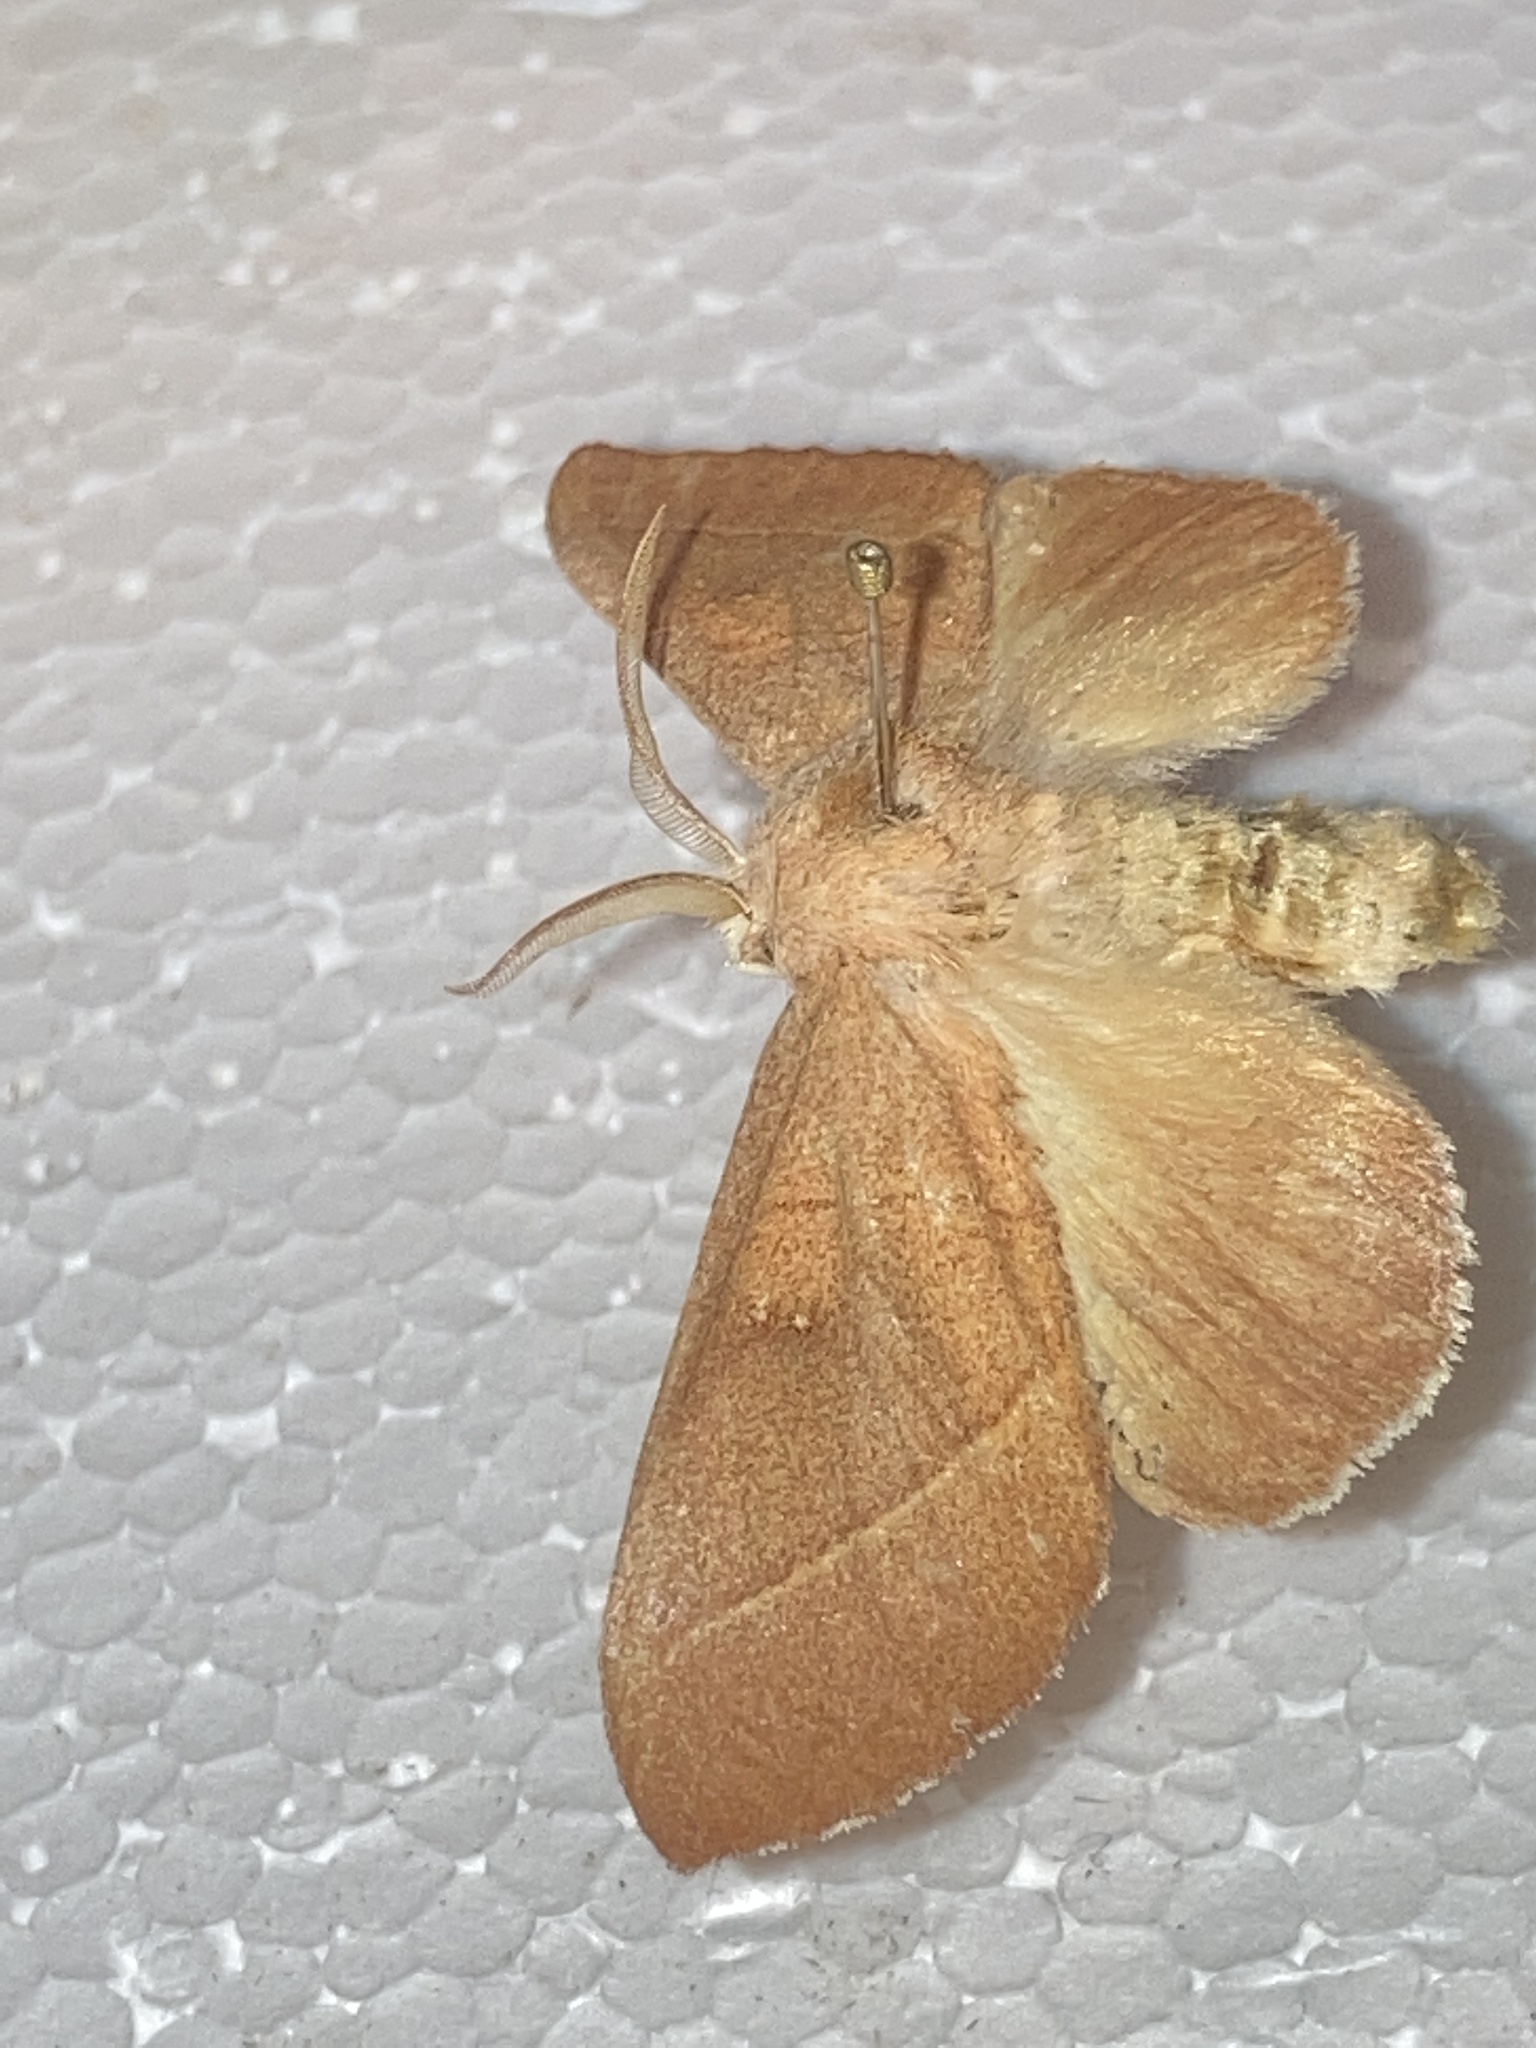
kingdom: Animalia
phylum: Arthropoda
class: Insecta
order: Lepidoptera
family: Notodontidae
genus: Nadata
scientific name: Nadata gibbosa
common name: White-dotted prominent
